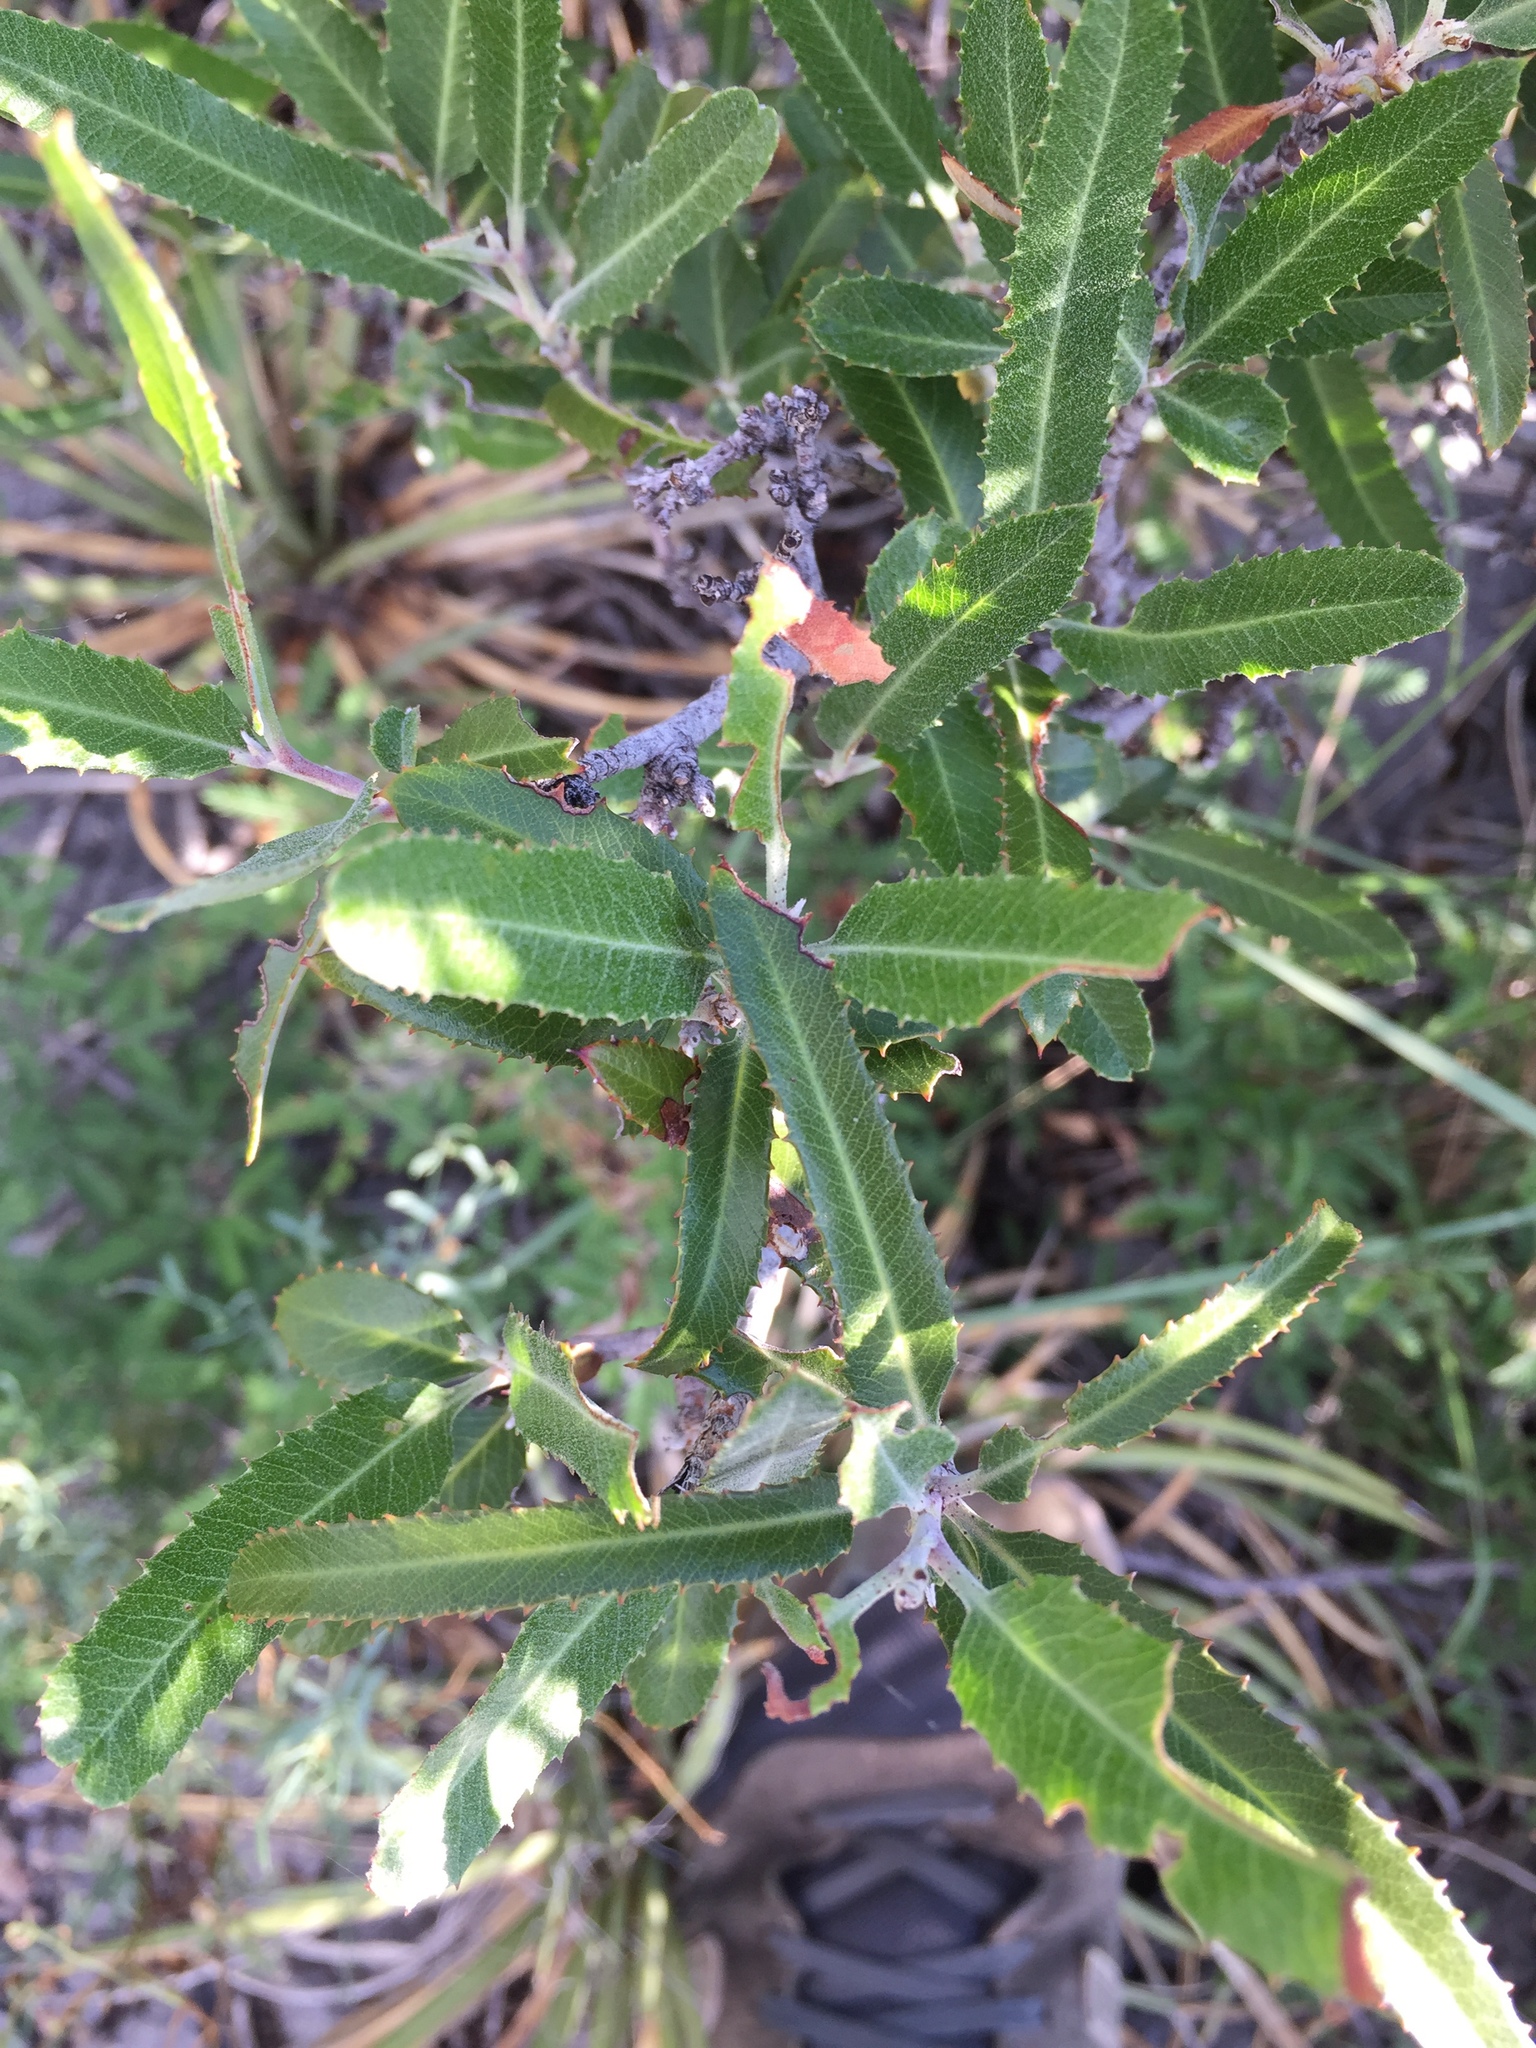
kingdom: Plantae
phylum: Tracheophyta
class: Magnoliopsida
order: Rosales
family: Rosaceae
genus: Vauquelinia
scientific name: Vauquelinia californica
